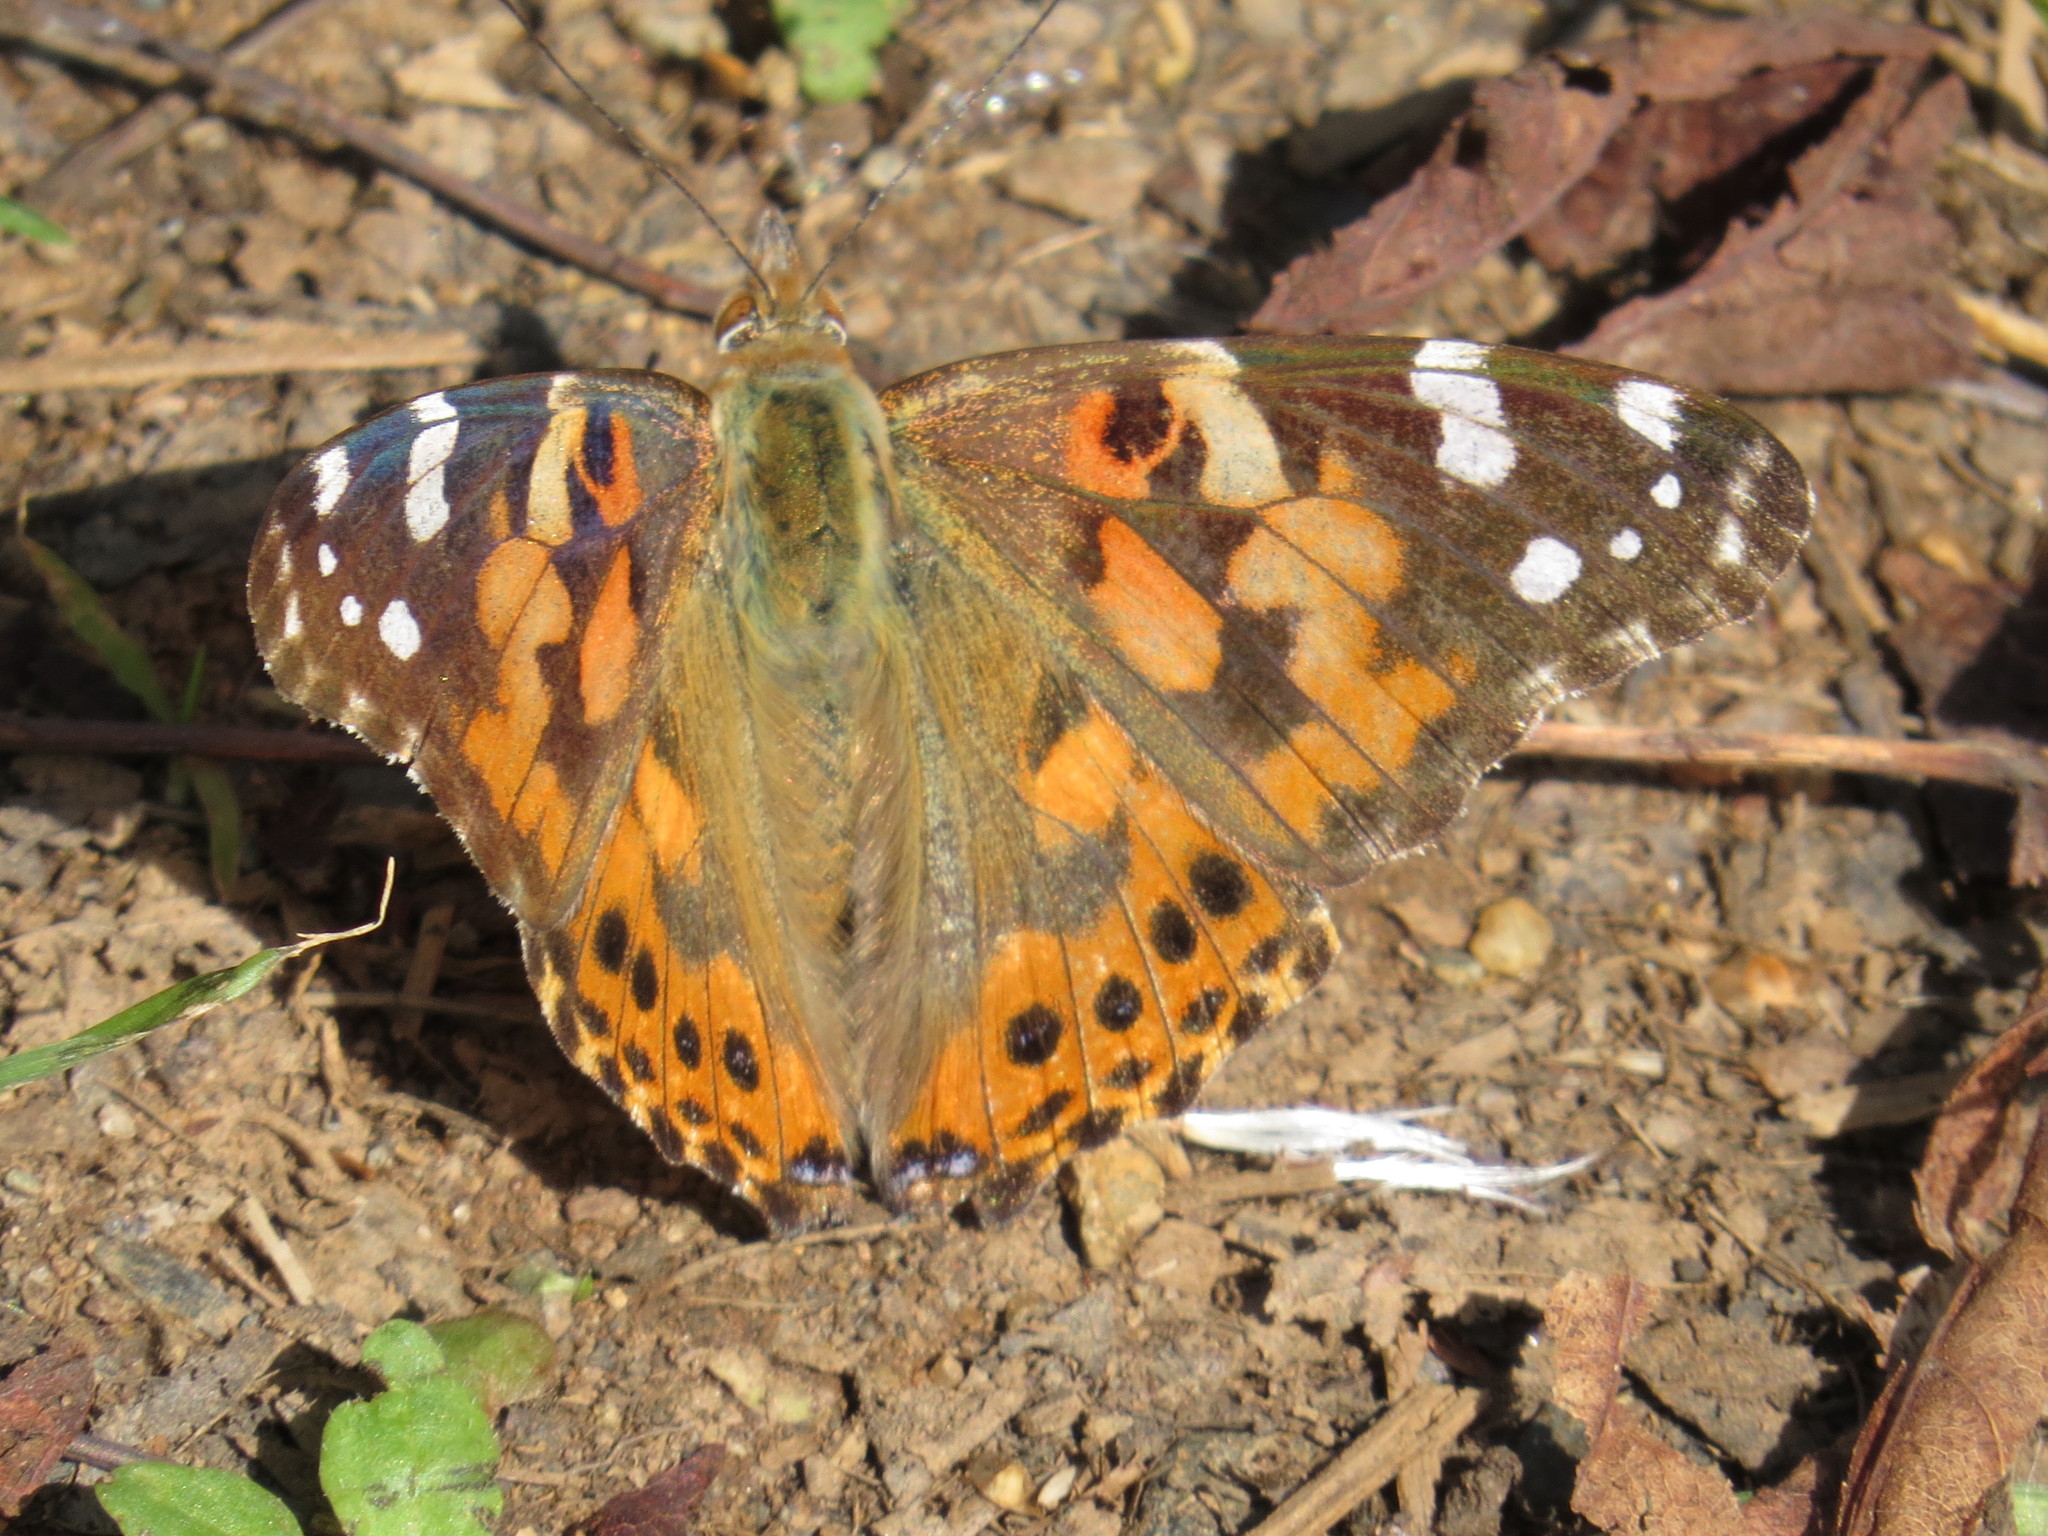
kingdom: Animalia
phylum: Arthropoda
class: Insecta
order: Lepidoptera
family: Nymphalidae
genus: Vanessa
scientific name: Vanessa cardui
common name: Painted lady
